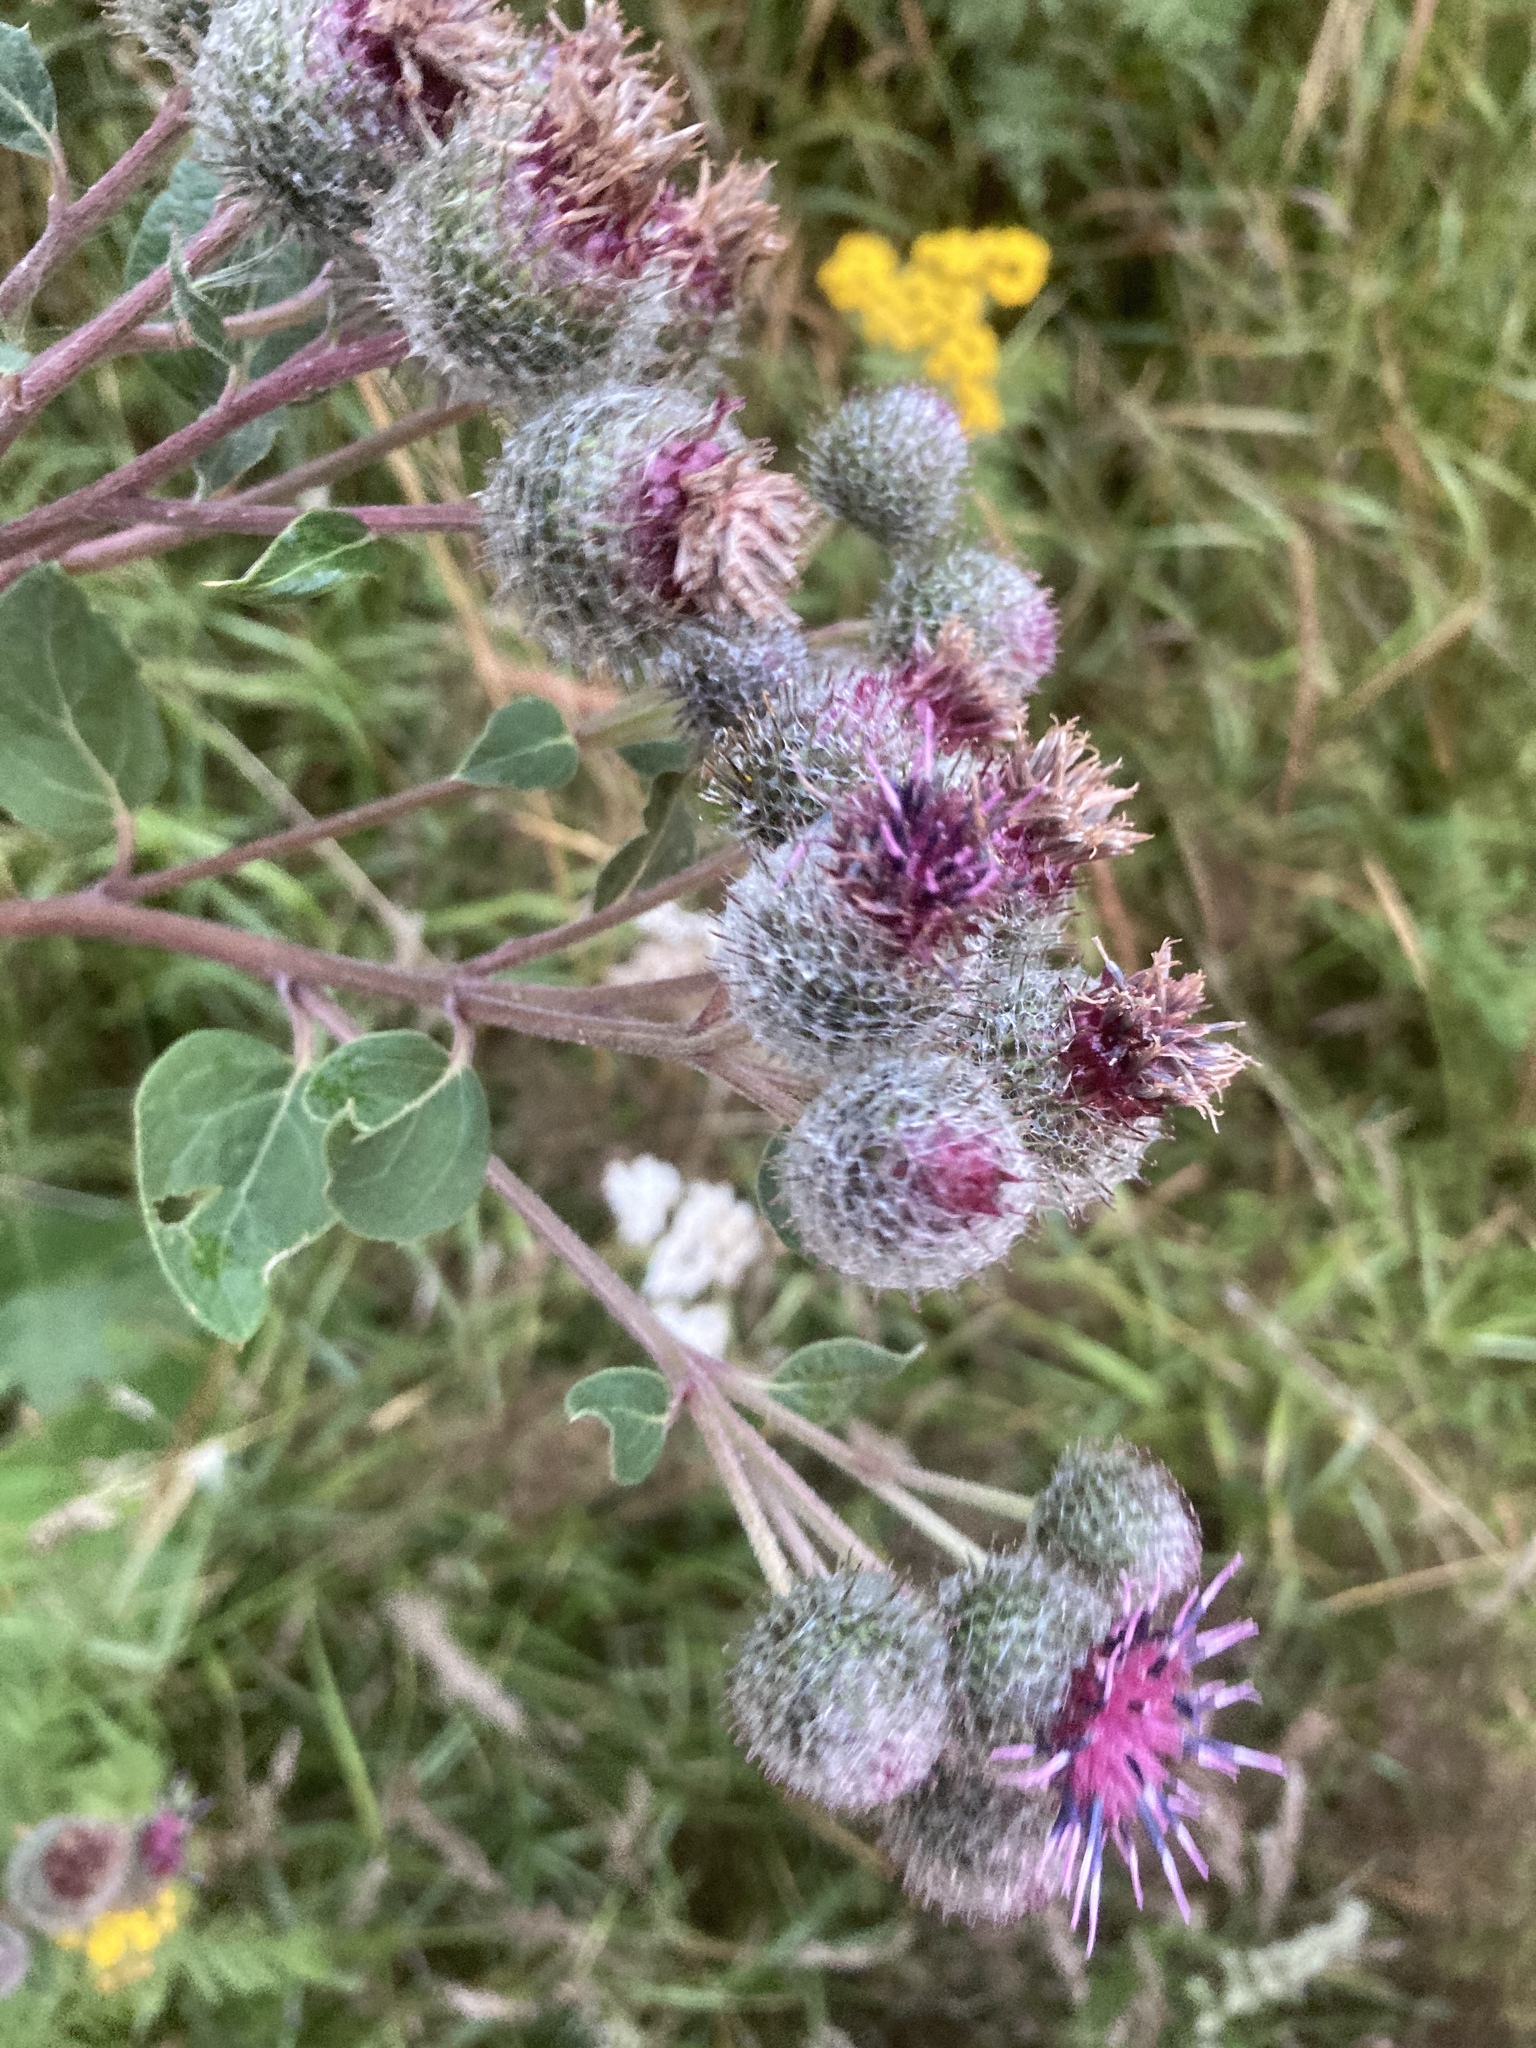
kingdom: Plantae
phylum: Tracheophyta
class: Magnoliopsida
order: Asterales
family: Asteraceae
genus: Arctium
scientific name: Arctium tomentosum
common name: Woolly burdock
